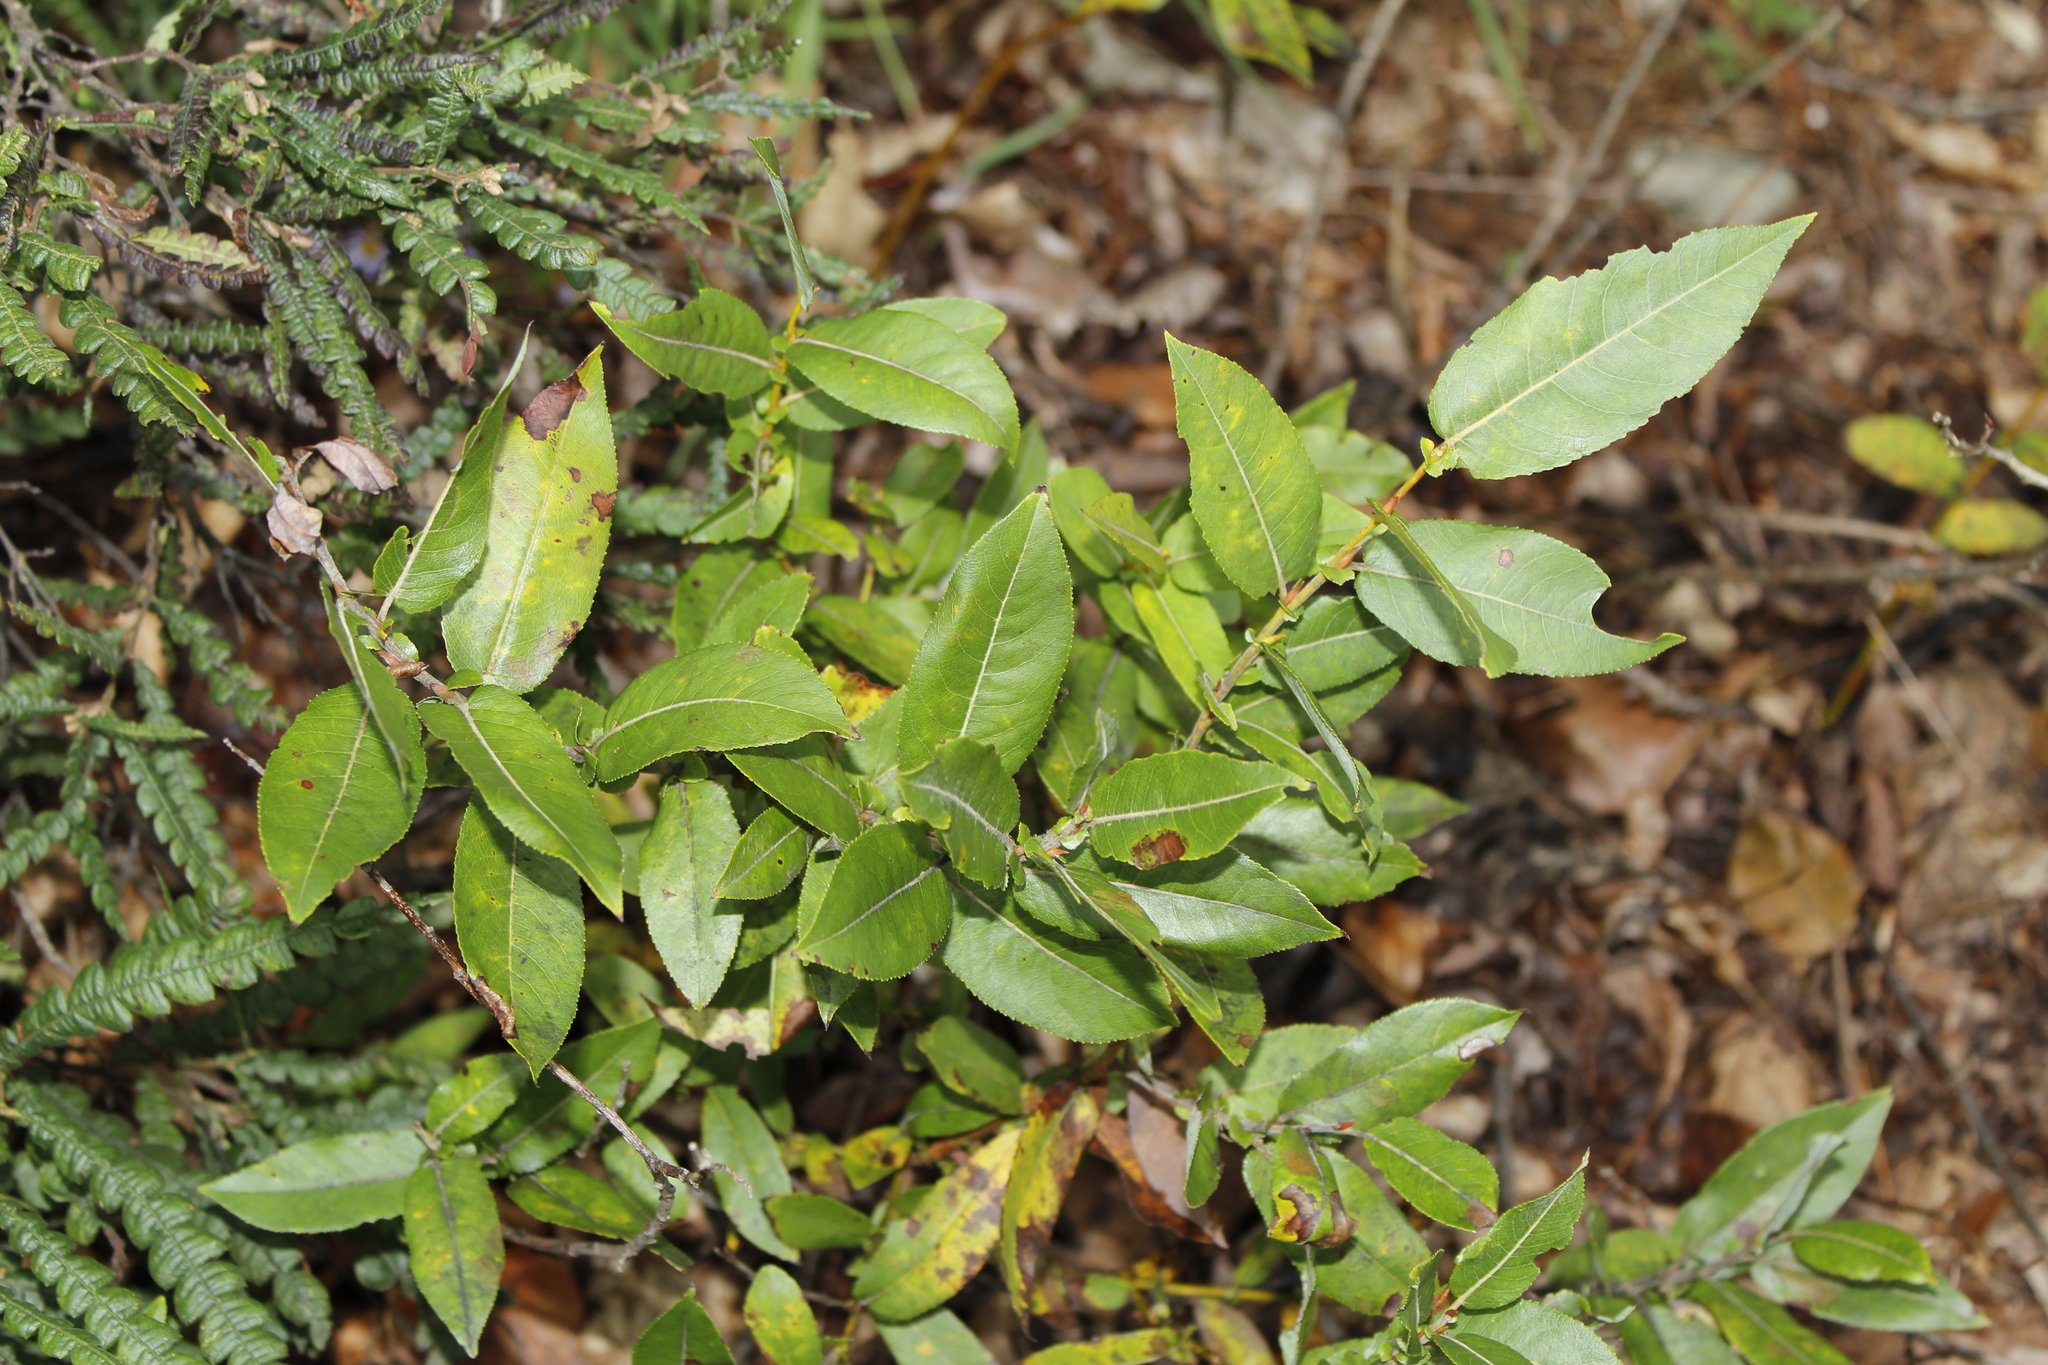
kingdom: Plantae
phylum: Tracheophyta
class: Magnoliopsida
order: Malpighiales
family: Salicaceae
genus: Salix
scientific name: Salix eriocephala
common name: Heart-leaved willow
